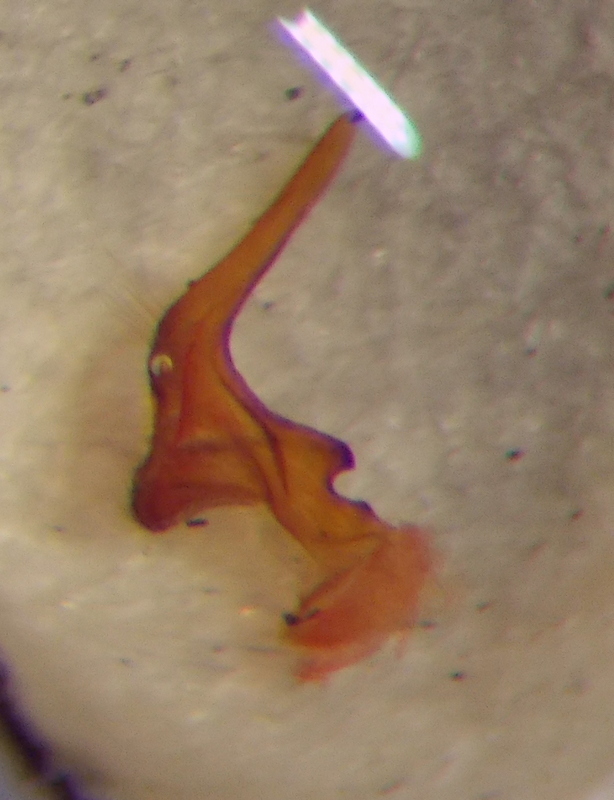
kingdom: Animalia
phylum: Arthropoda
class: Insecta
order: Hemiptera
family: Lygaeidae
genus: Lygaeus
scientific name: Lygaeus equestris
